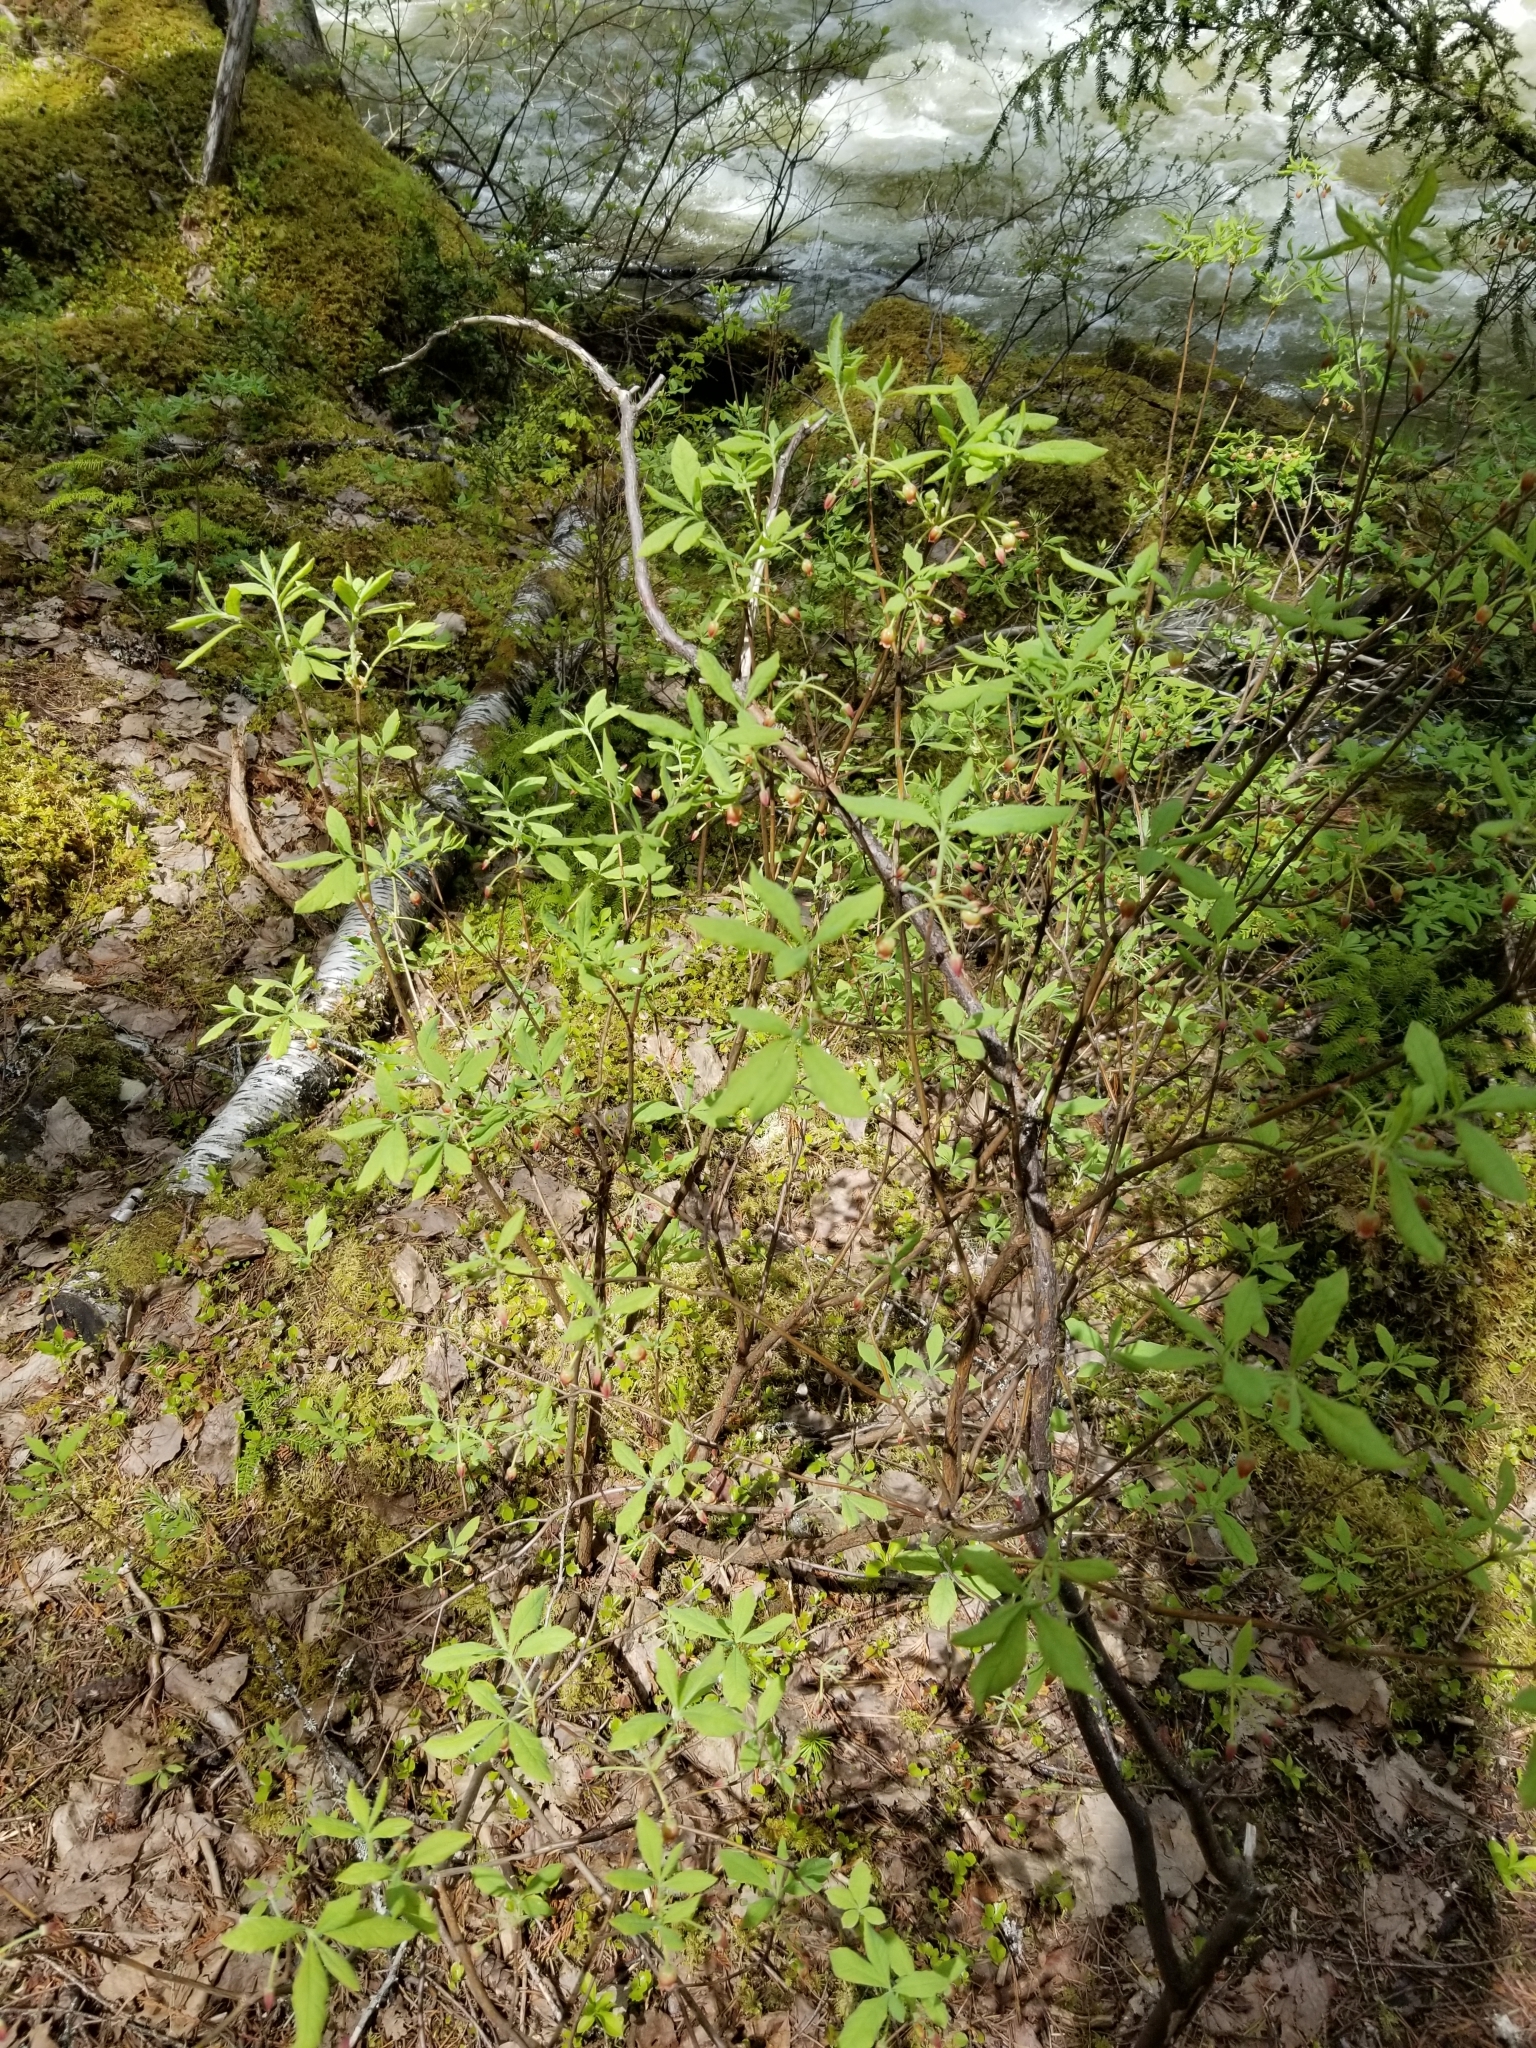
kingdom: Plantae
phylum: Tracheophyta
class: Magnoliopsida
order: Ericales
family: Ericaceae
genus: Rhododendron
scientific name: Rhododendron menziesii
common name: Pacific menziesia
